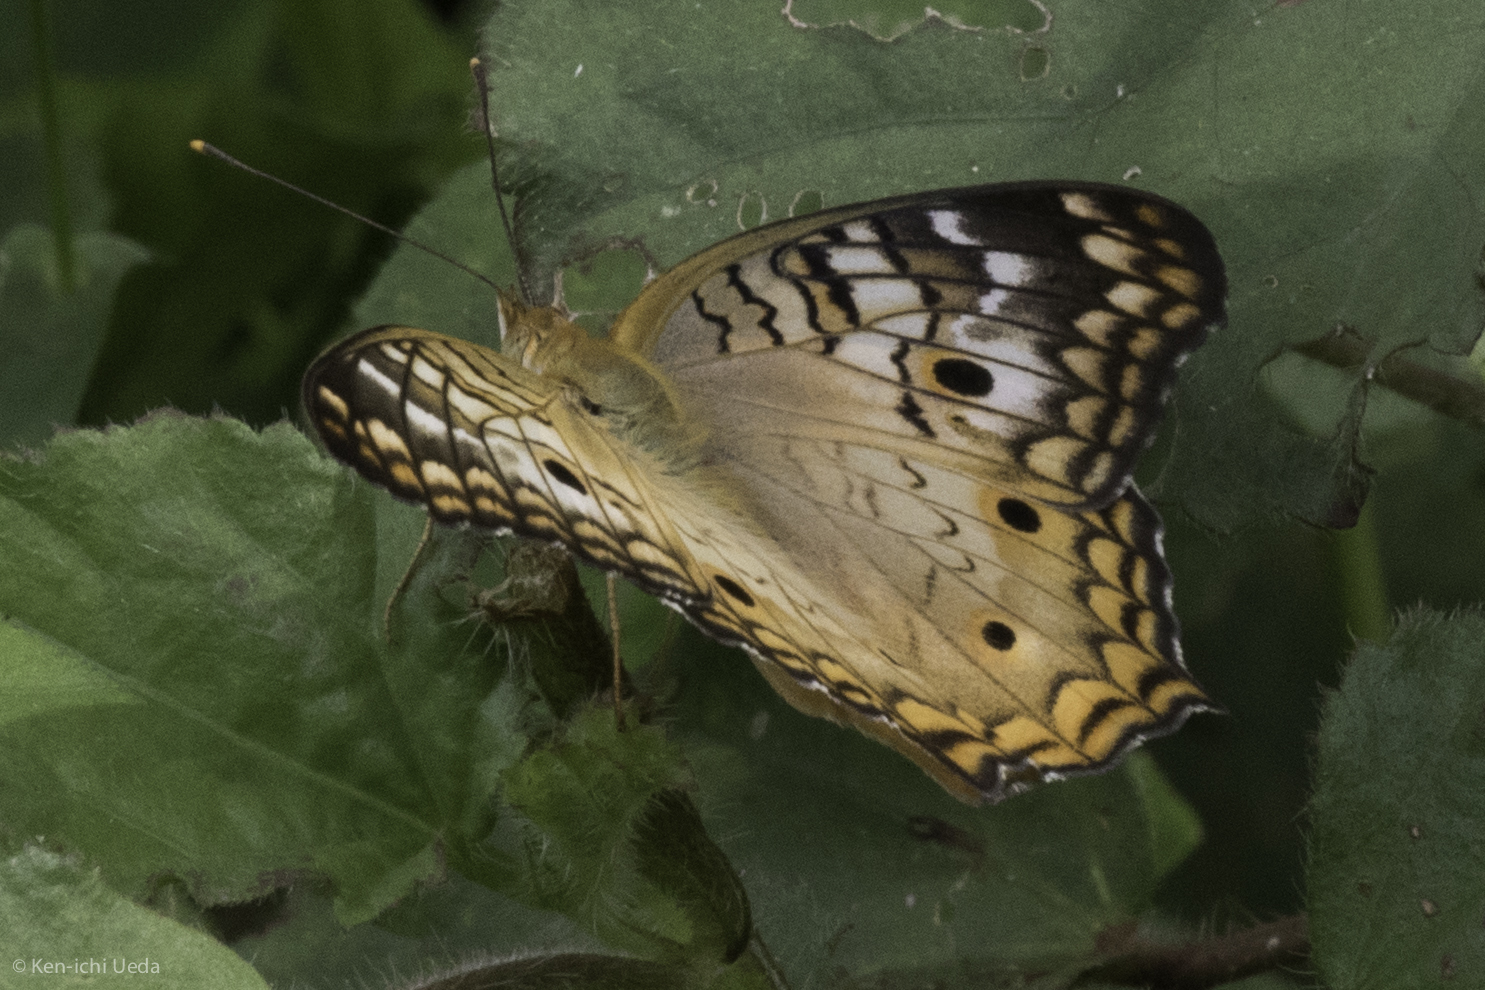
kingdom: Animalia
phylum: Arthropoda
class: Insecta
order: Lepidoptera
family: Nymphalidae
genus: Anartia
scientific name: Anartia jatrophae
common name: White peacock
